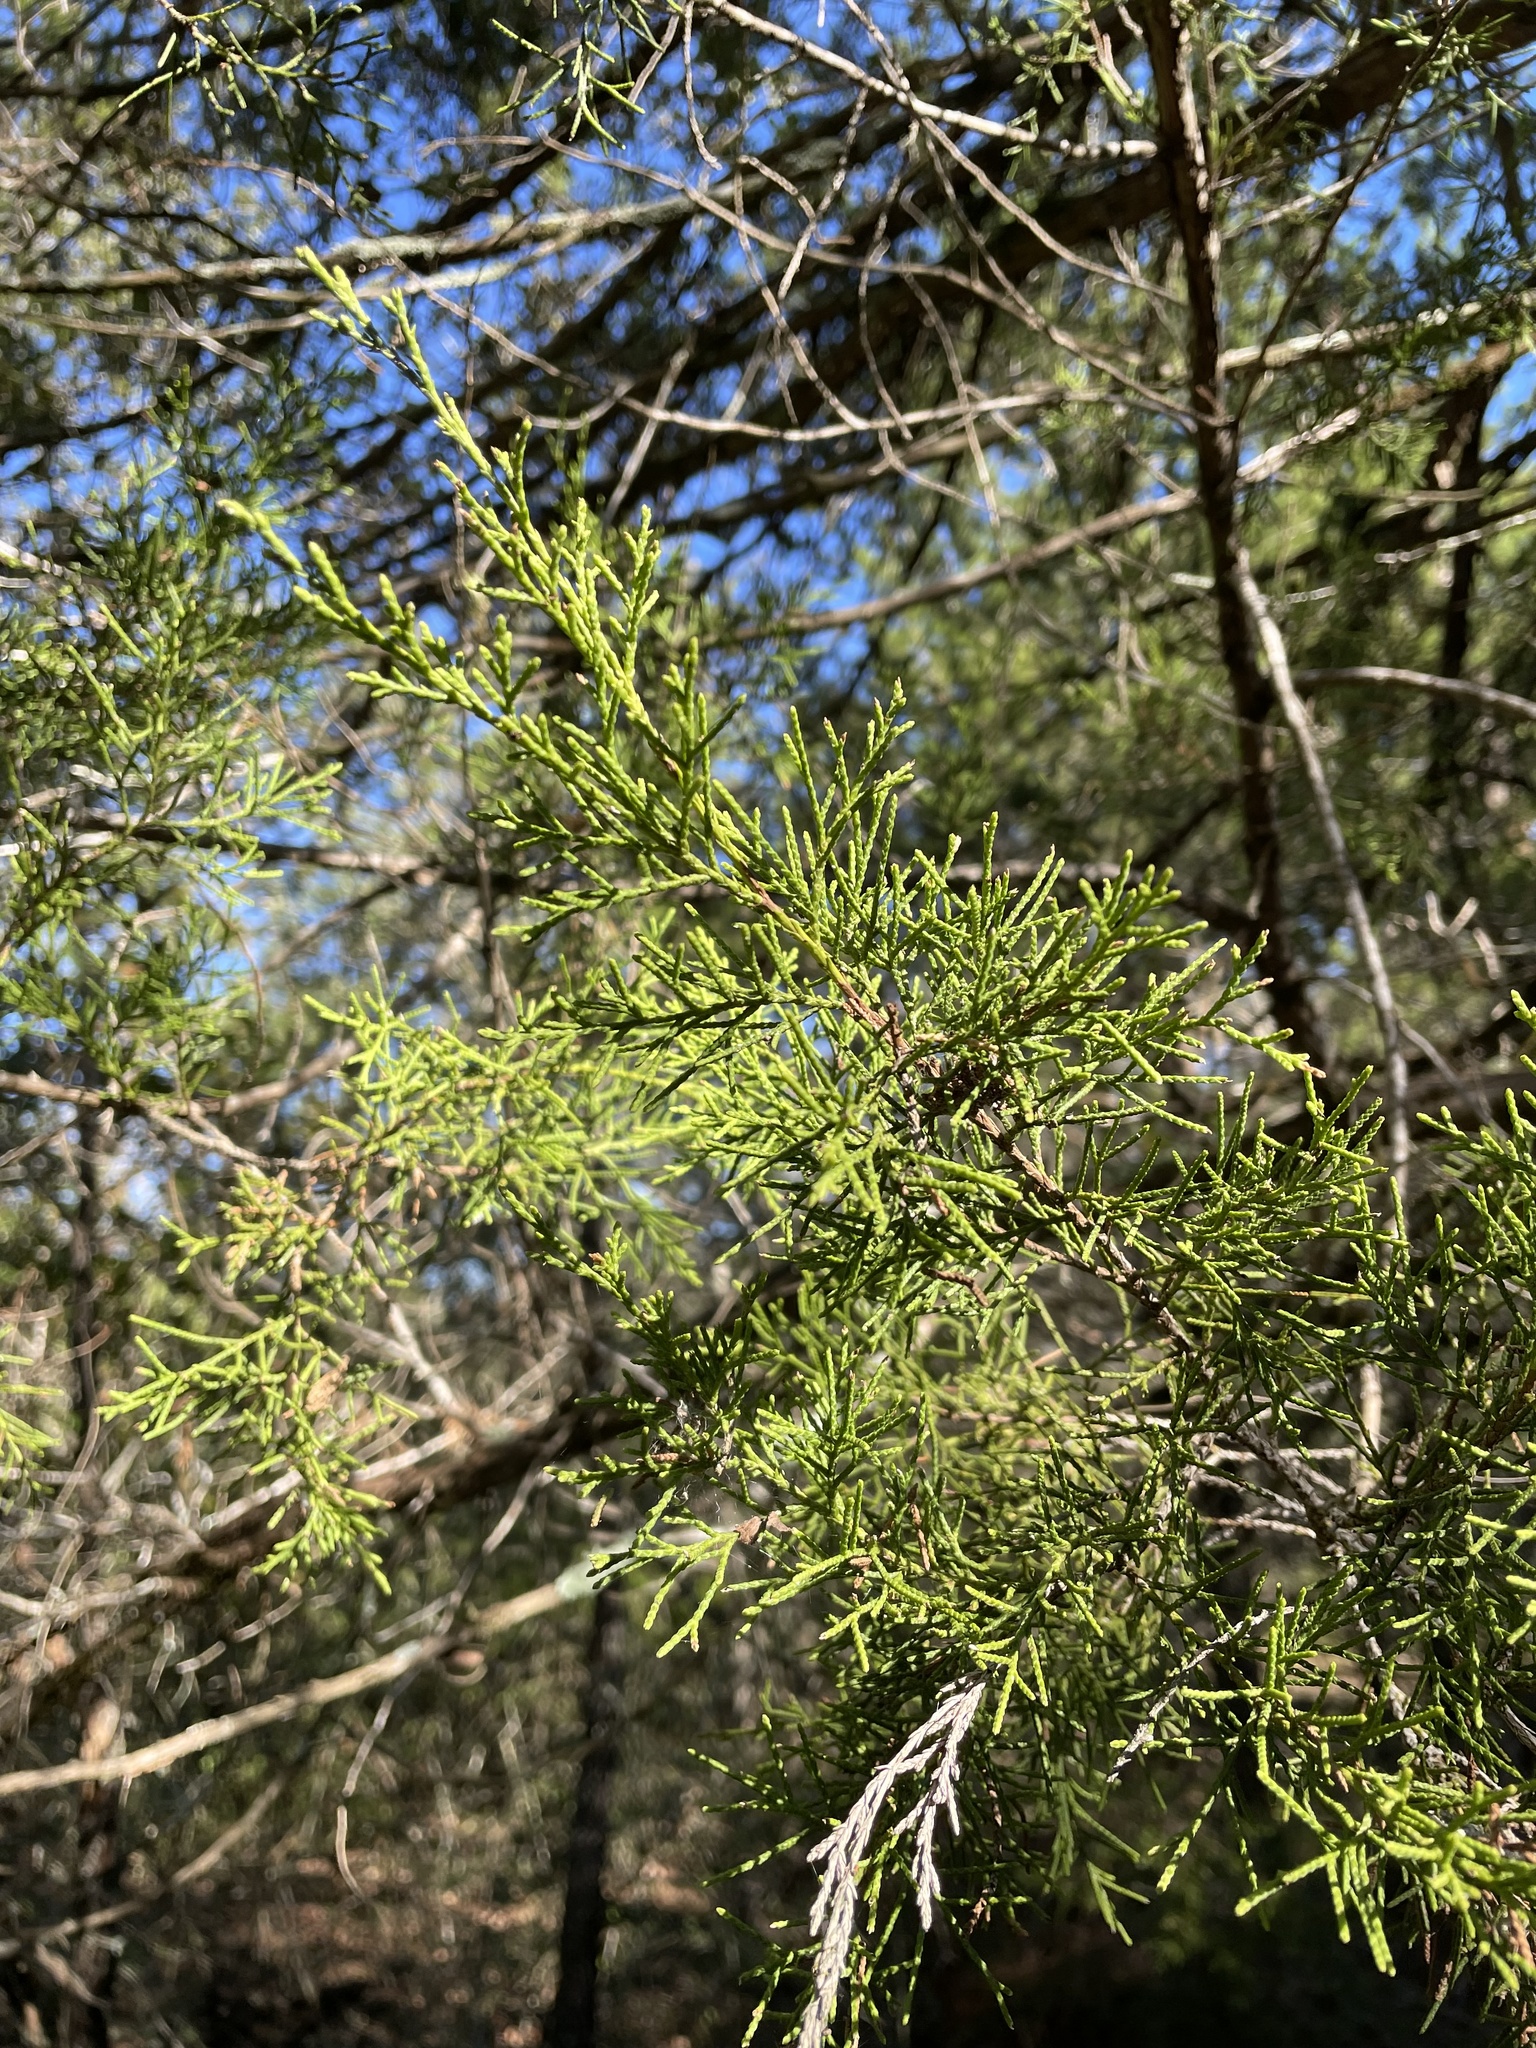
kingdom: Plantae
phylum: Tracheophyta
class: Pinopsida
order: Pinales
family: Cupressaceae
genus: Juniperus
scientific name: Juniperus virginiana
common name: Red juniper
